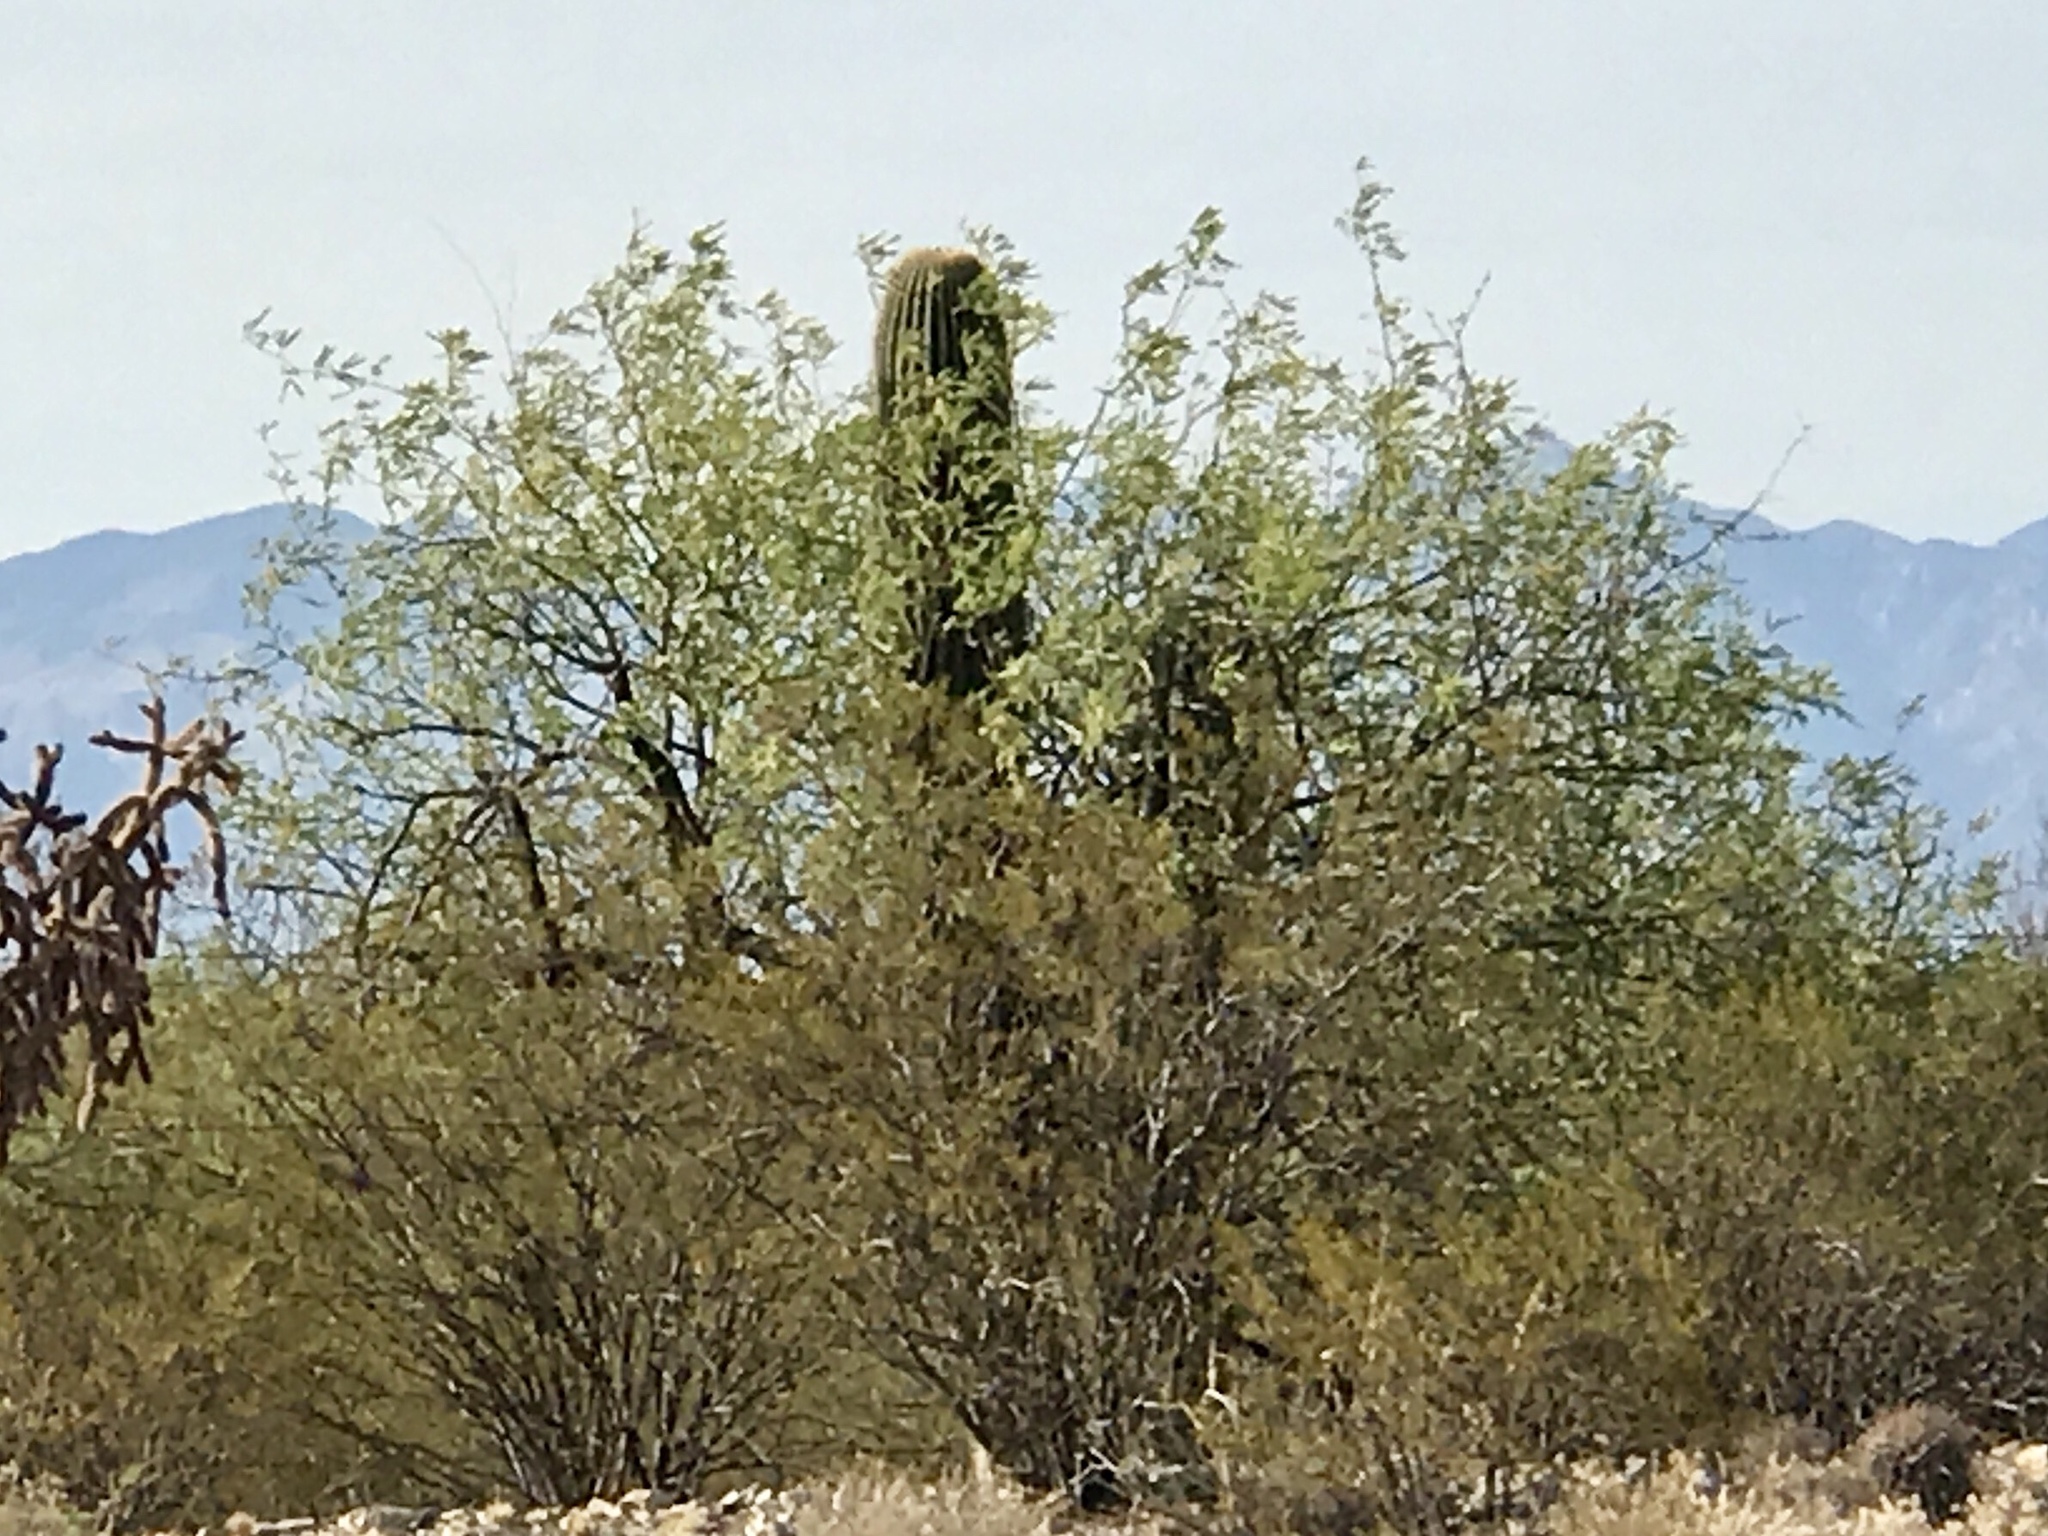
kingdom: Plantae
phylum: Tracheophyta
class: Magnoliopsida
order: Caryophyllales
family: Cactaceae
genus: Carnegiea
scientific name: Carnegiea gigantea
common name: Saguaro
